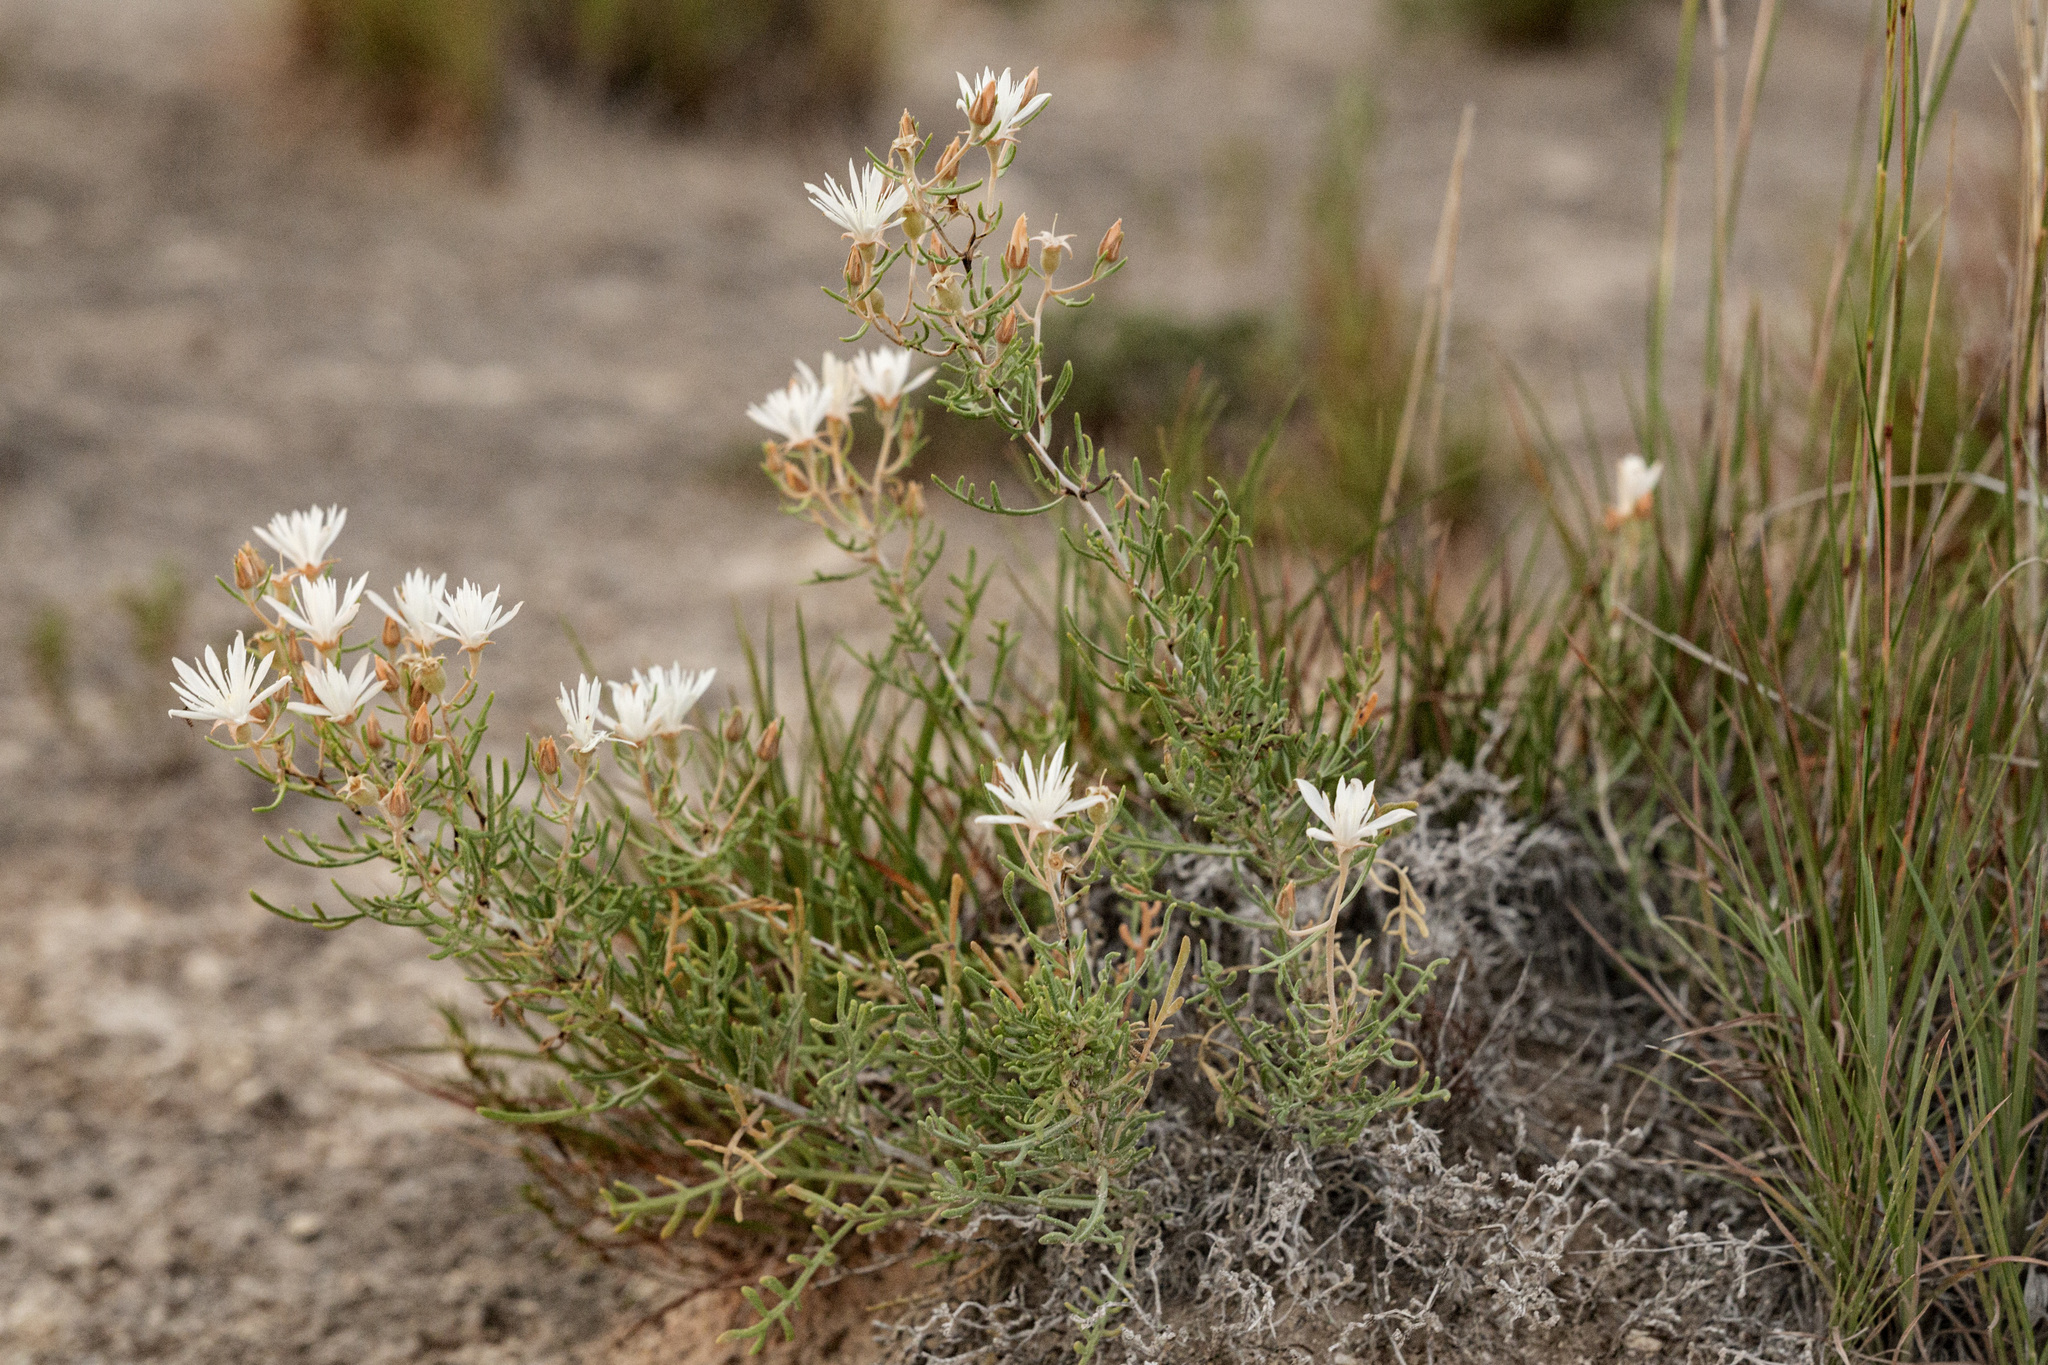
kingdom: Plantae
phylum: Tracheophyta
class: Magnoliopsida
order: Cornales
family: Loasaceae
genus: Mentzelia
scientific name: Mentzelia humilis
